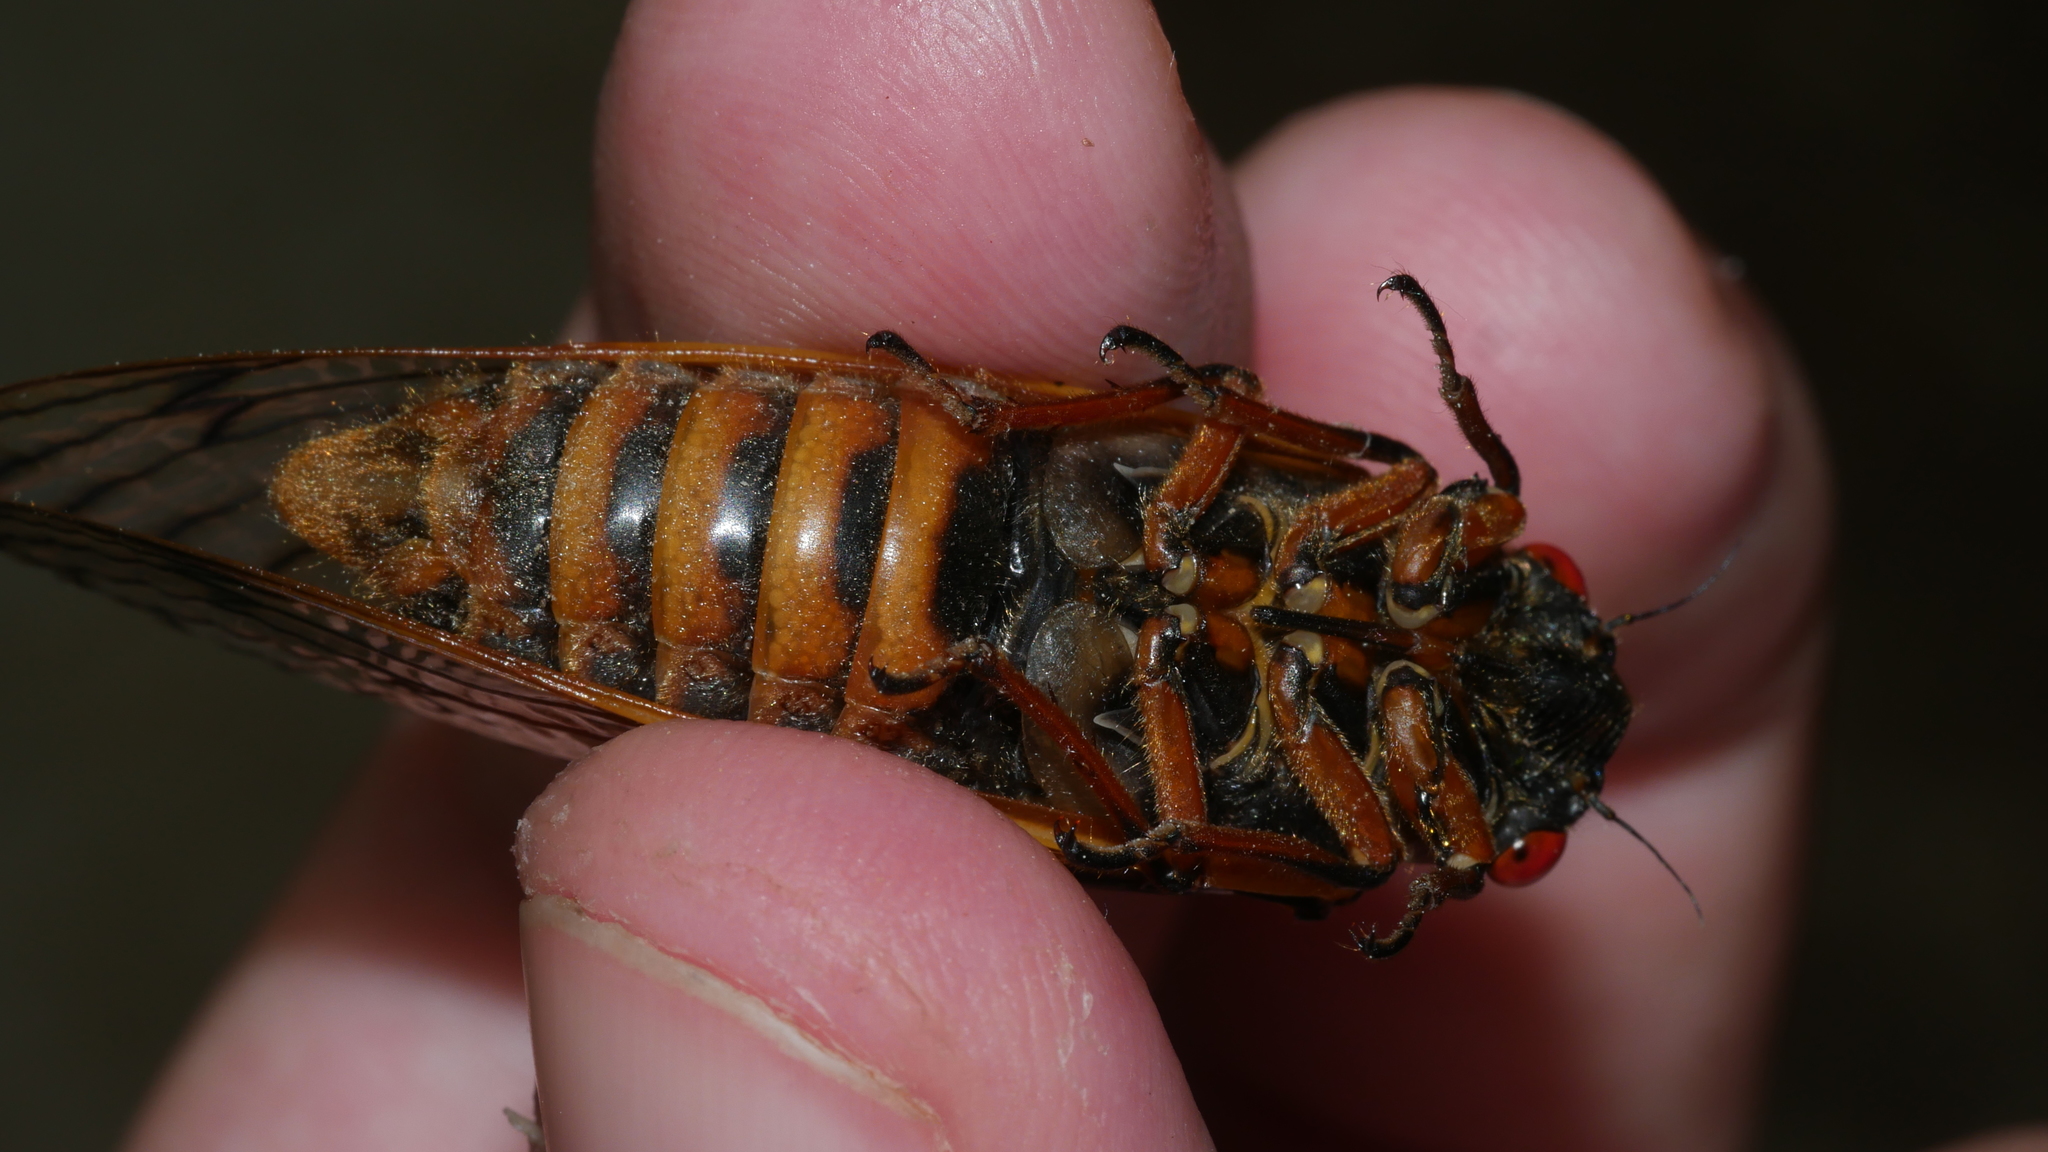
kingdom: Animalia
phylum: Arthropoda
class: Insecta
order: Hemiptera
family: Cicadidae
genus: Magicicada
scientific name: Magicicada septendecim
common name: Periodical cicada
